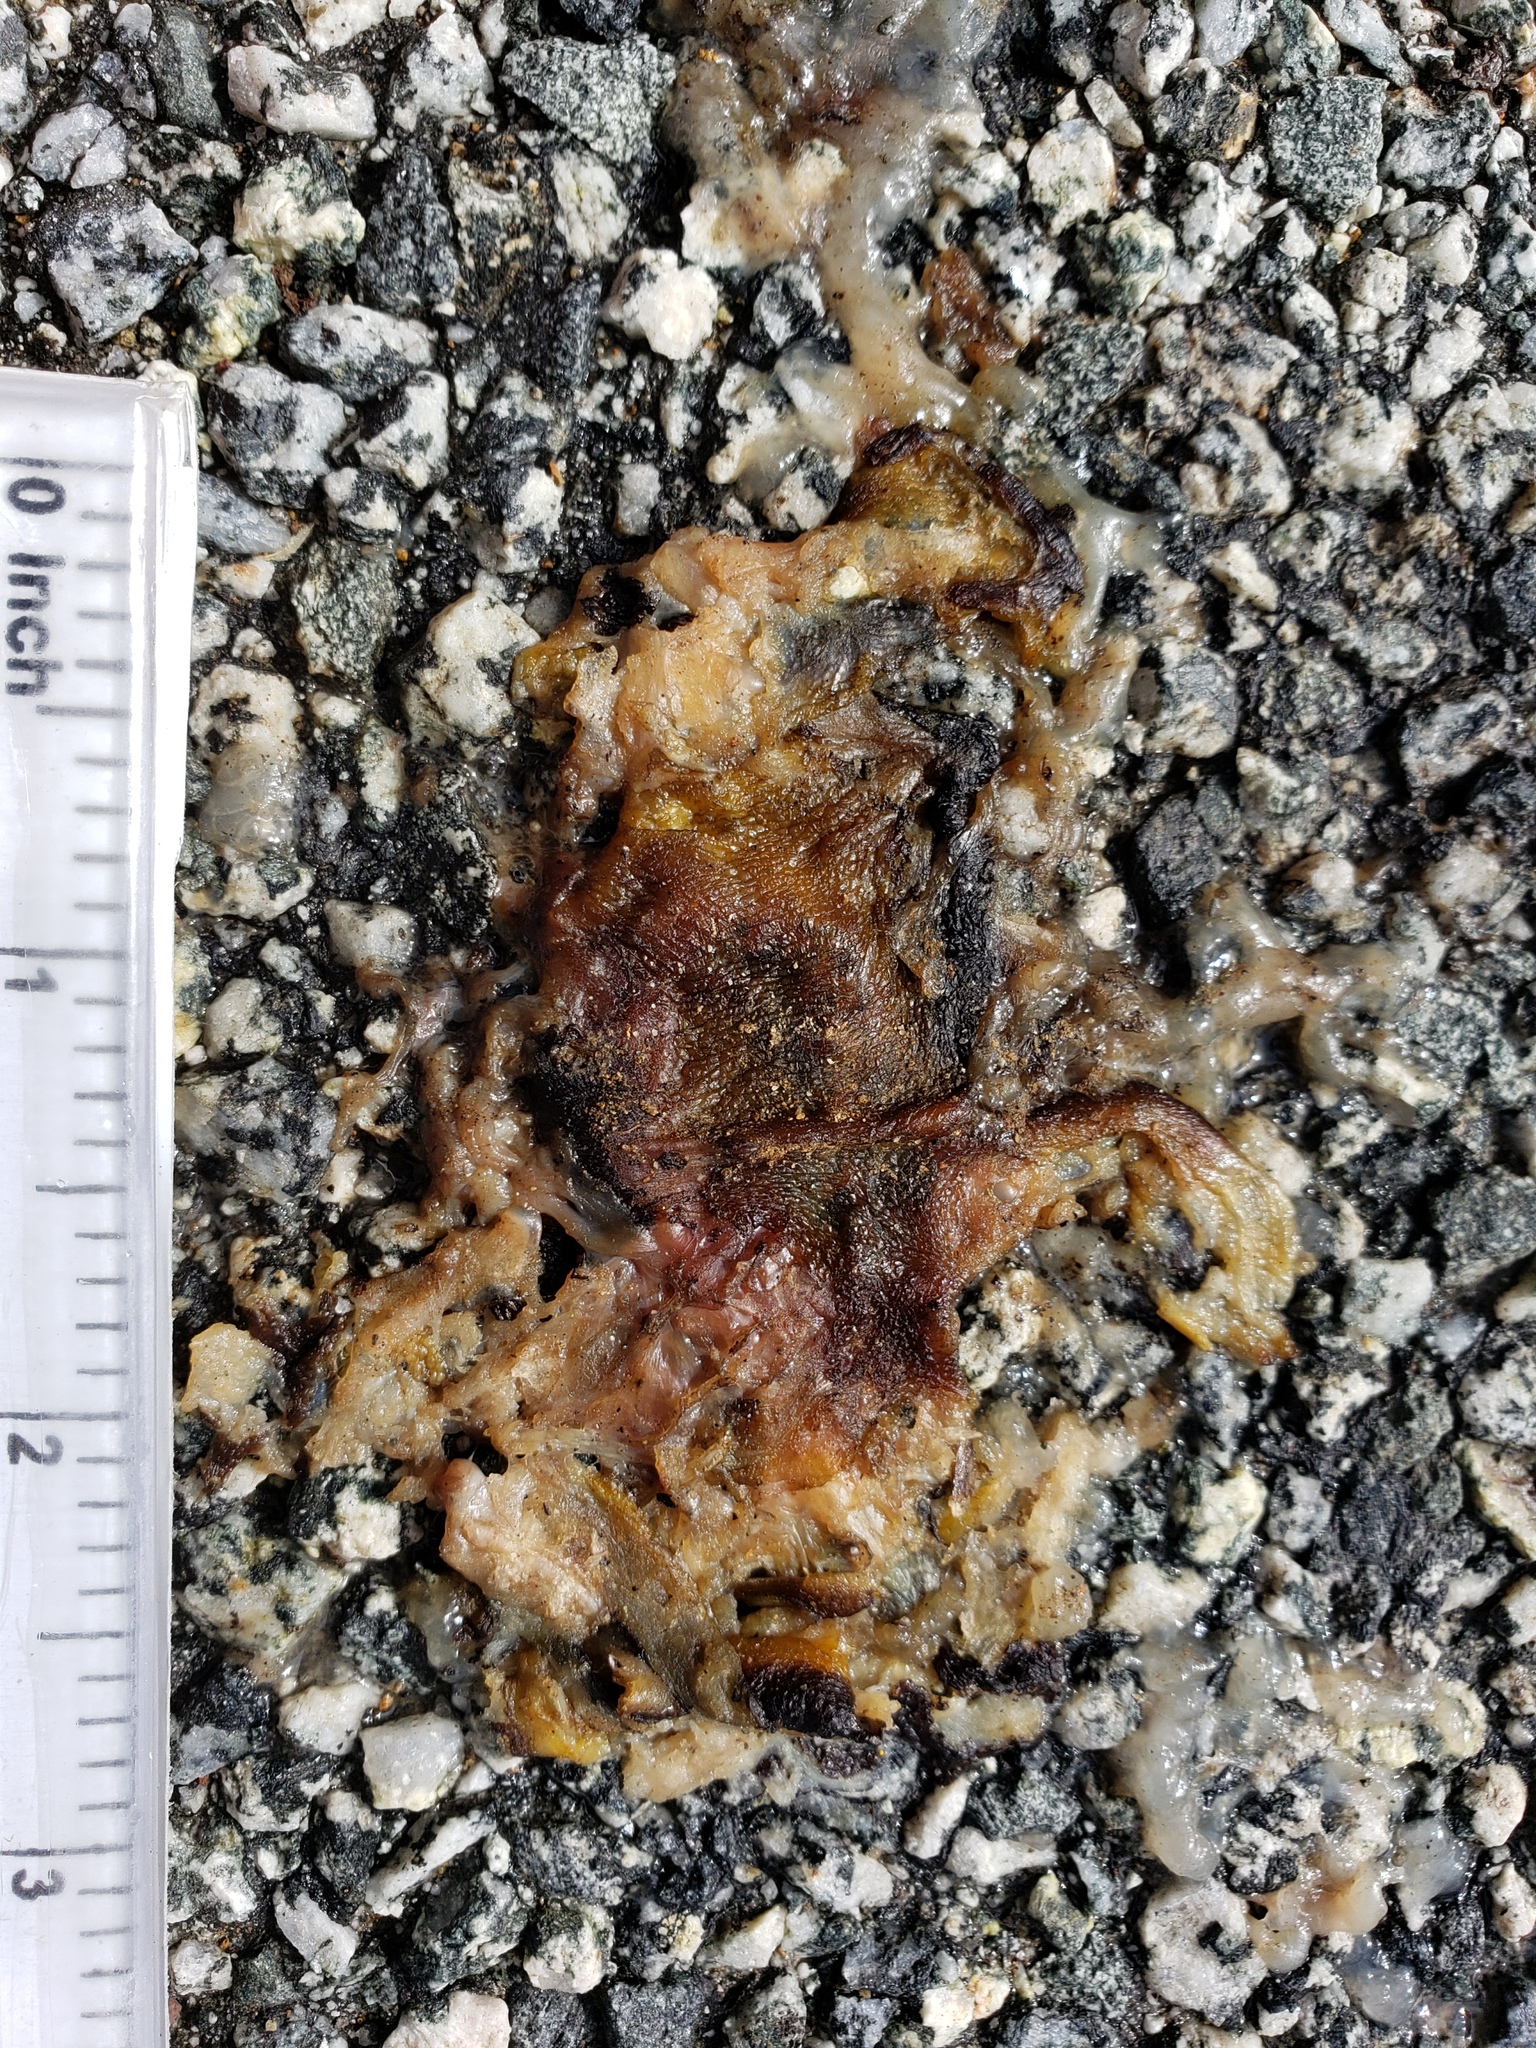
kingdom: Animalia
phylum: Chordata
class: Amphibia
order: Caudata
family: Salamandridae
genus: Taricha
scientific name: Taricha
